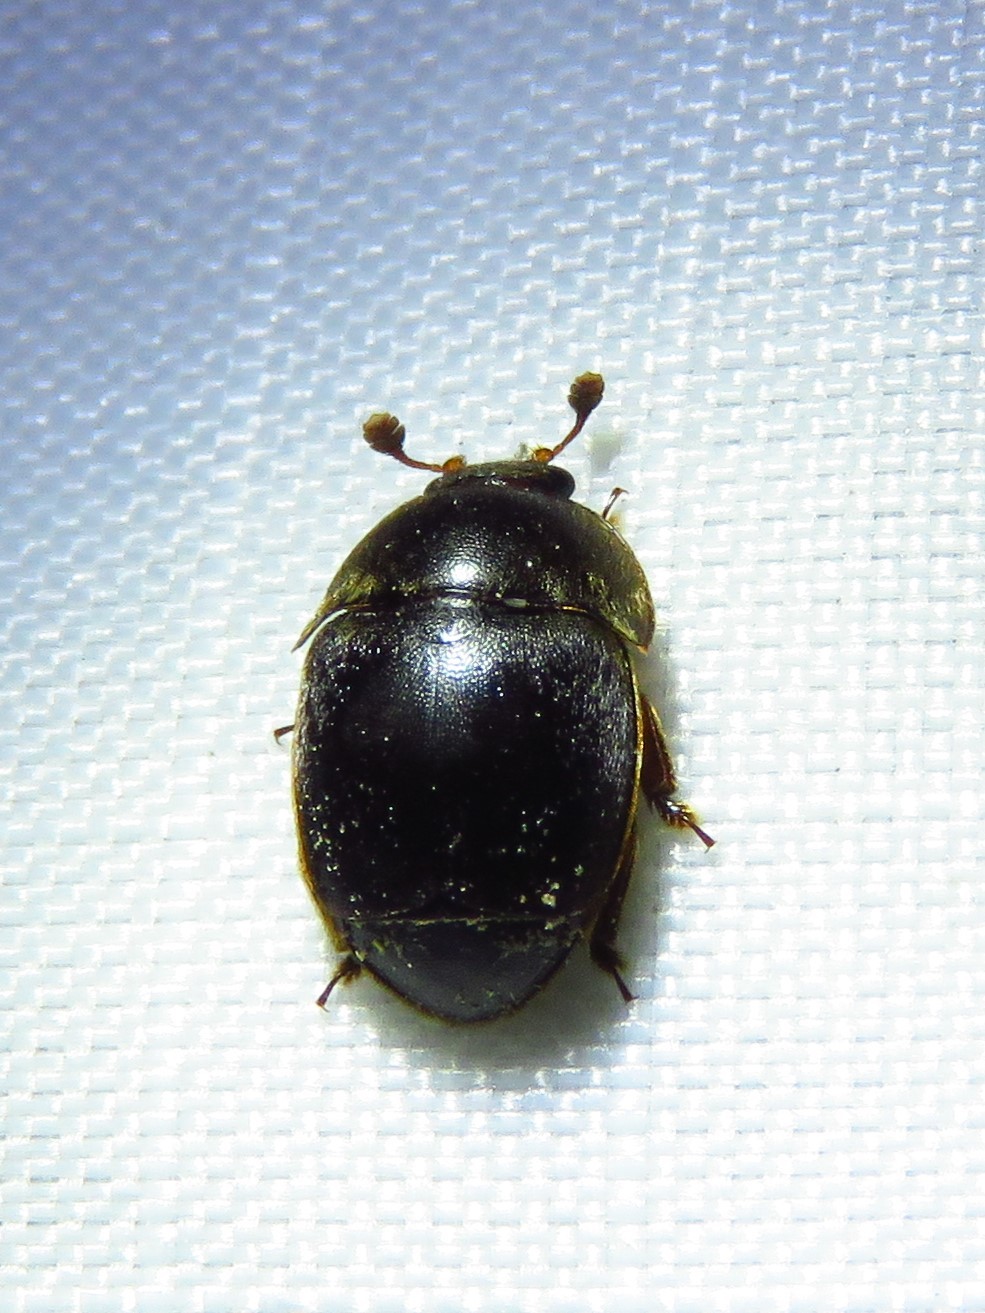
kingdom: Animalia
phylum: Arthropoda
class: Insecta
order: Coleoptera
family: Nitidulidae
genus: Aethina
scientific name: Aethina tumida
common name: Small hive beetle
